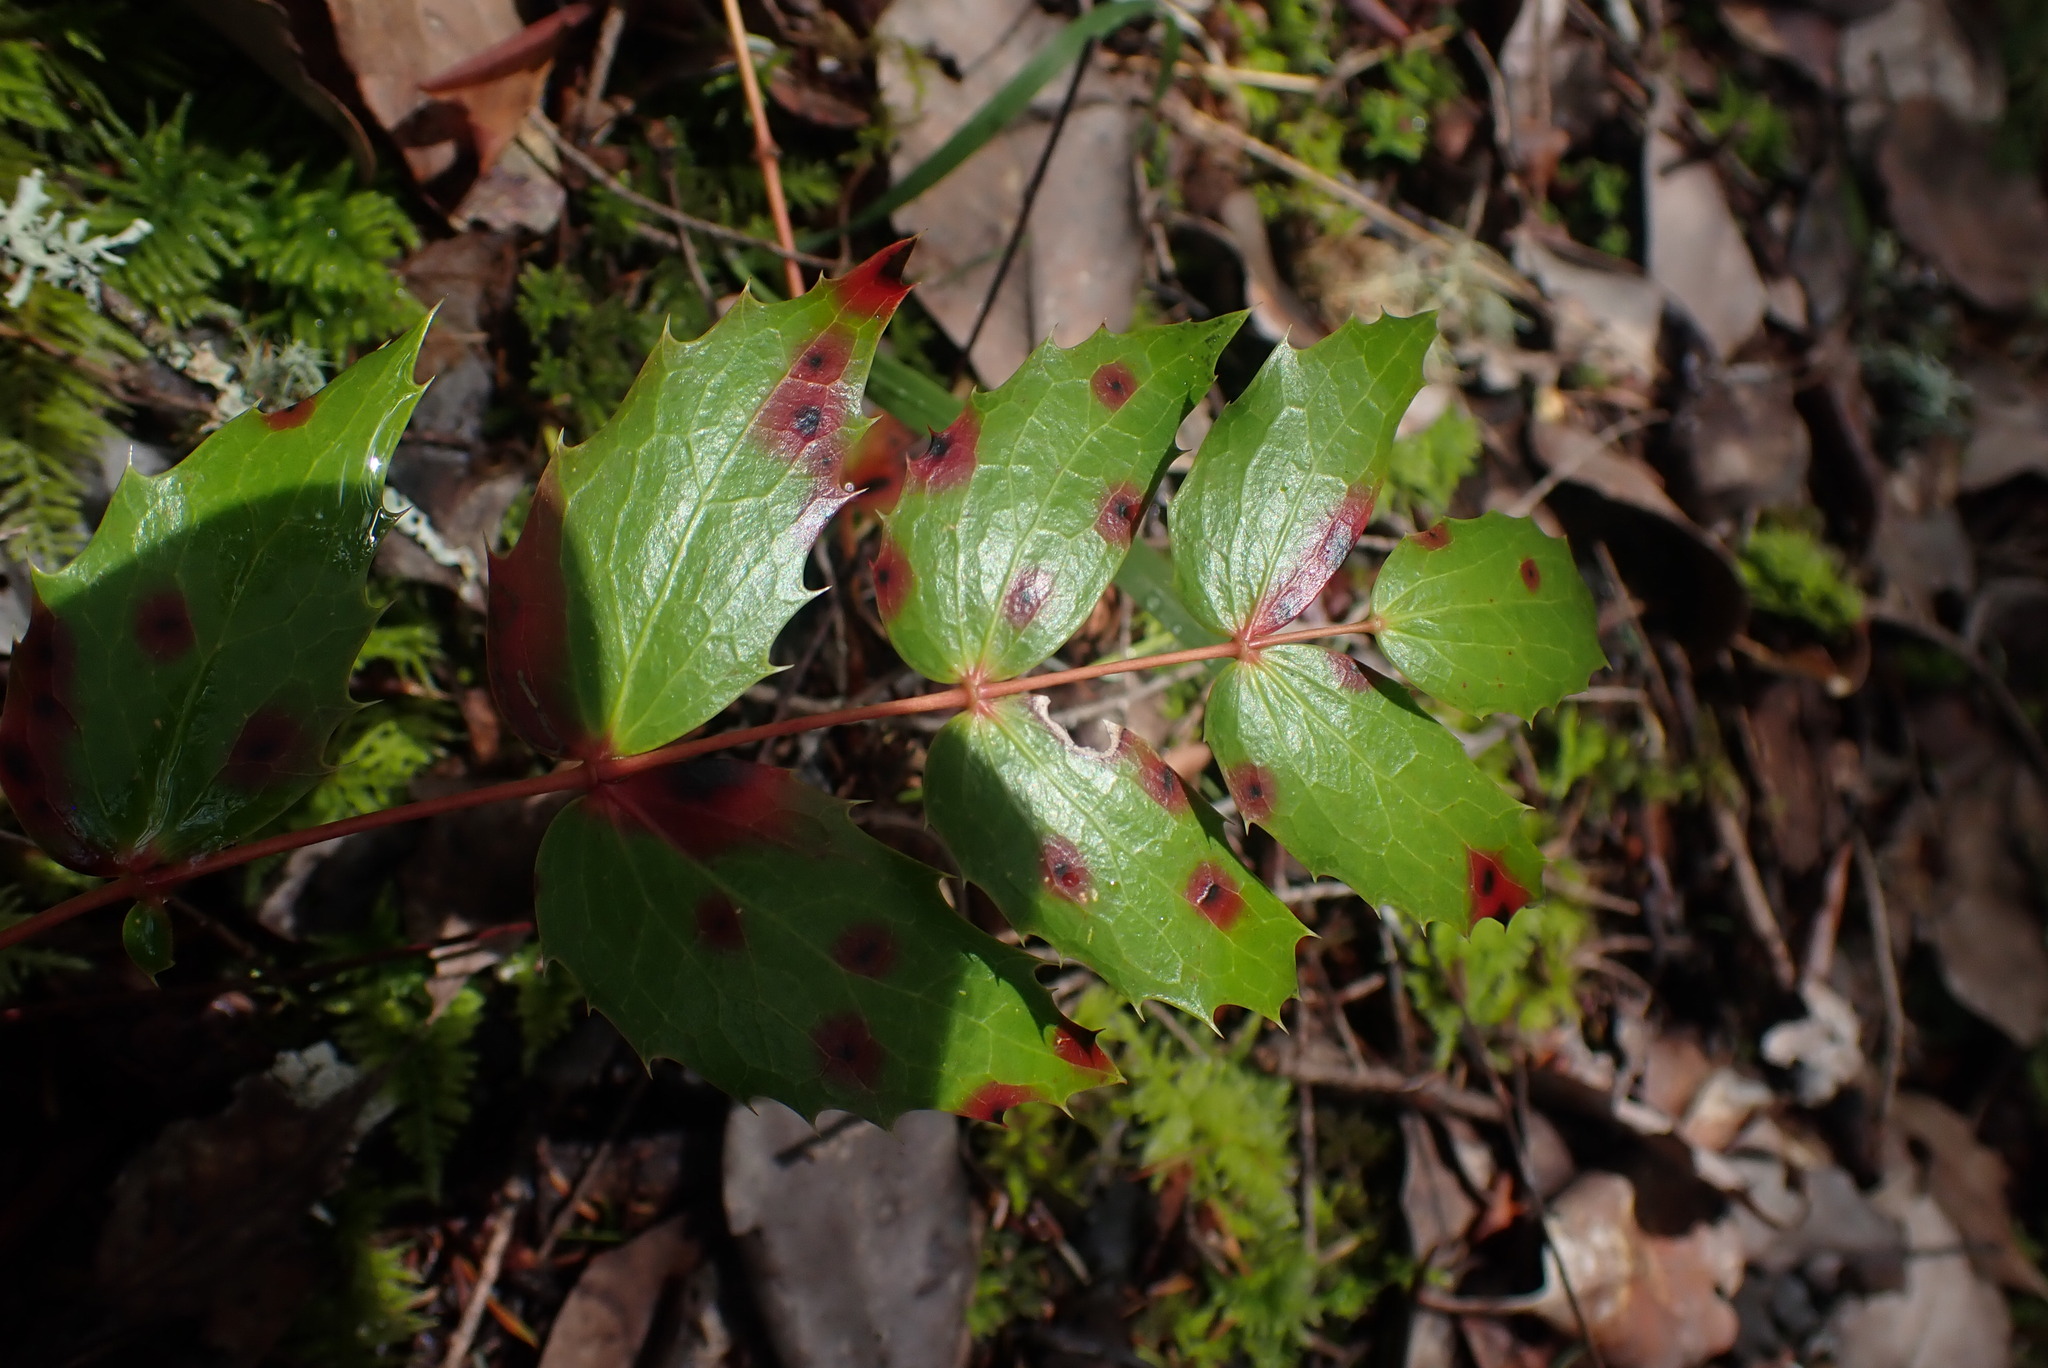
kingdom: Plantae
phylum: Tracheophyta
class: Magnoliopsida
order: Ranunculales
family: Berberidaceae
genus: Mahonia
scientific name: Mahonia nervosa
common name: Cascade oregon-grape
